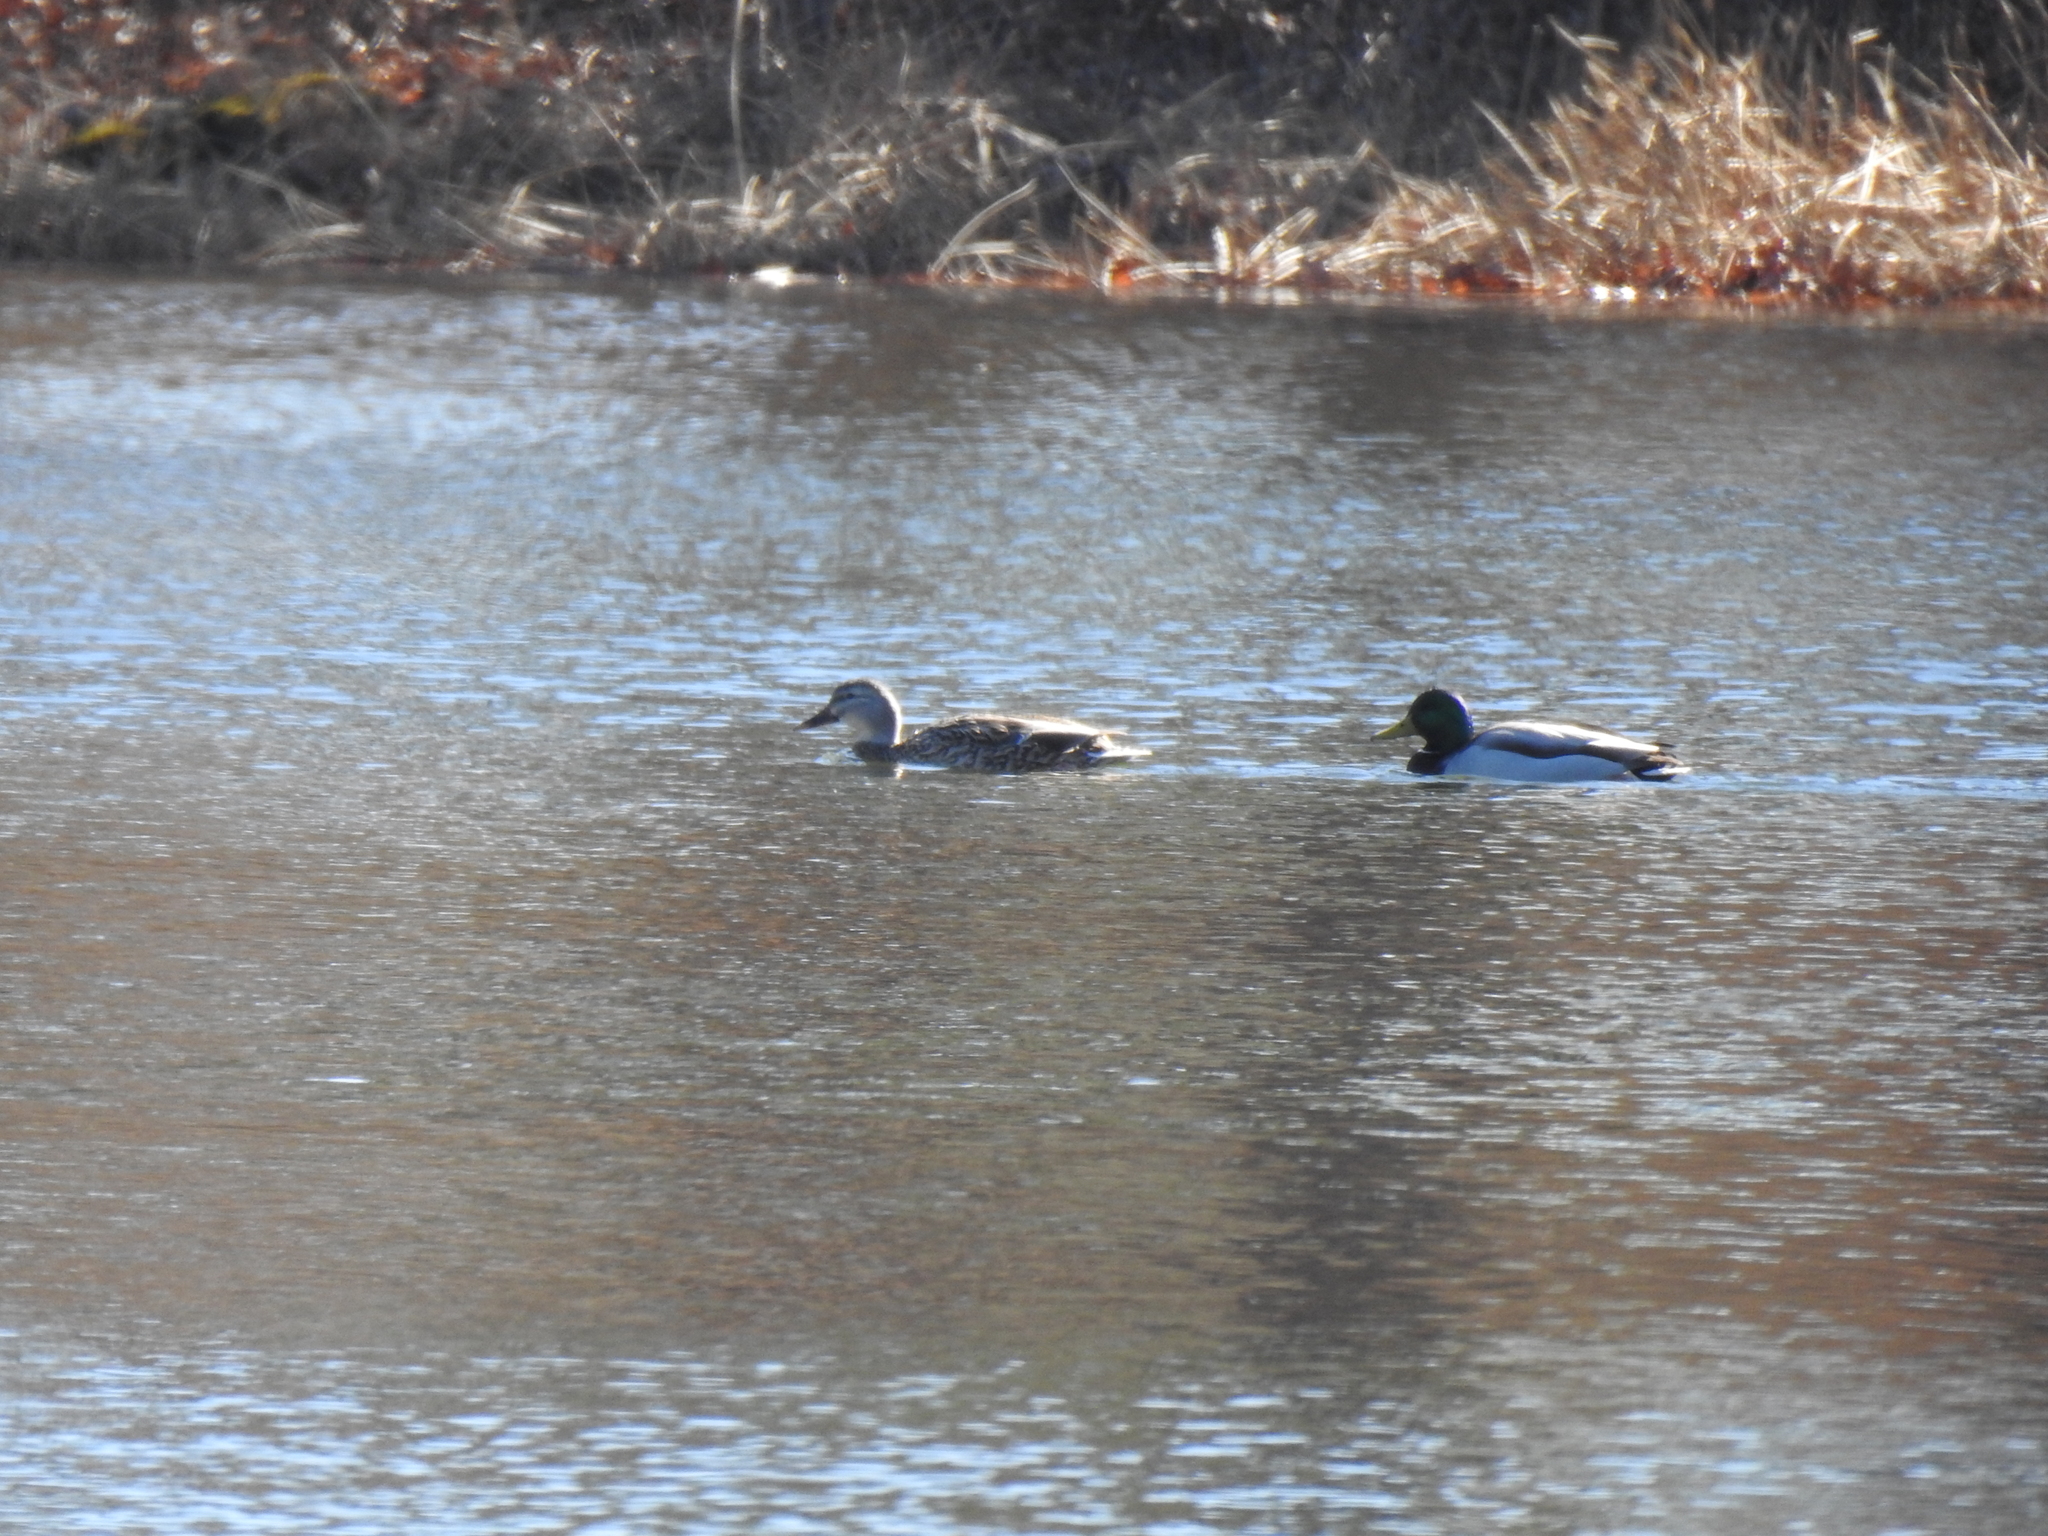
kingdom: Animalia
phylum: Chordata
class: Aves
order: Anseriformes
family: Anatidae
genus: Anas
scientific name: Anas platyrhynchos
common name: Mallard
